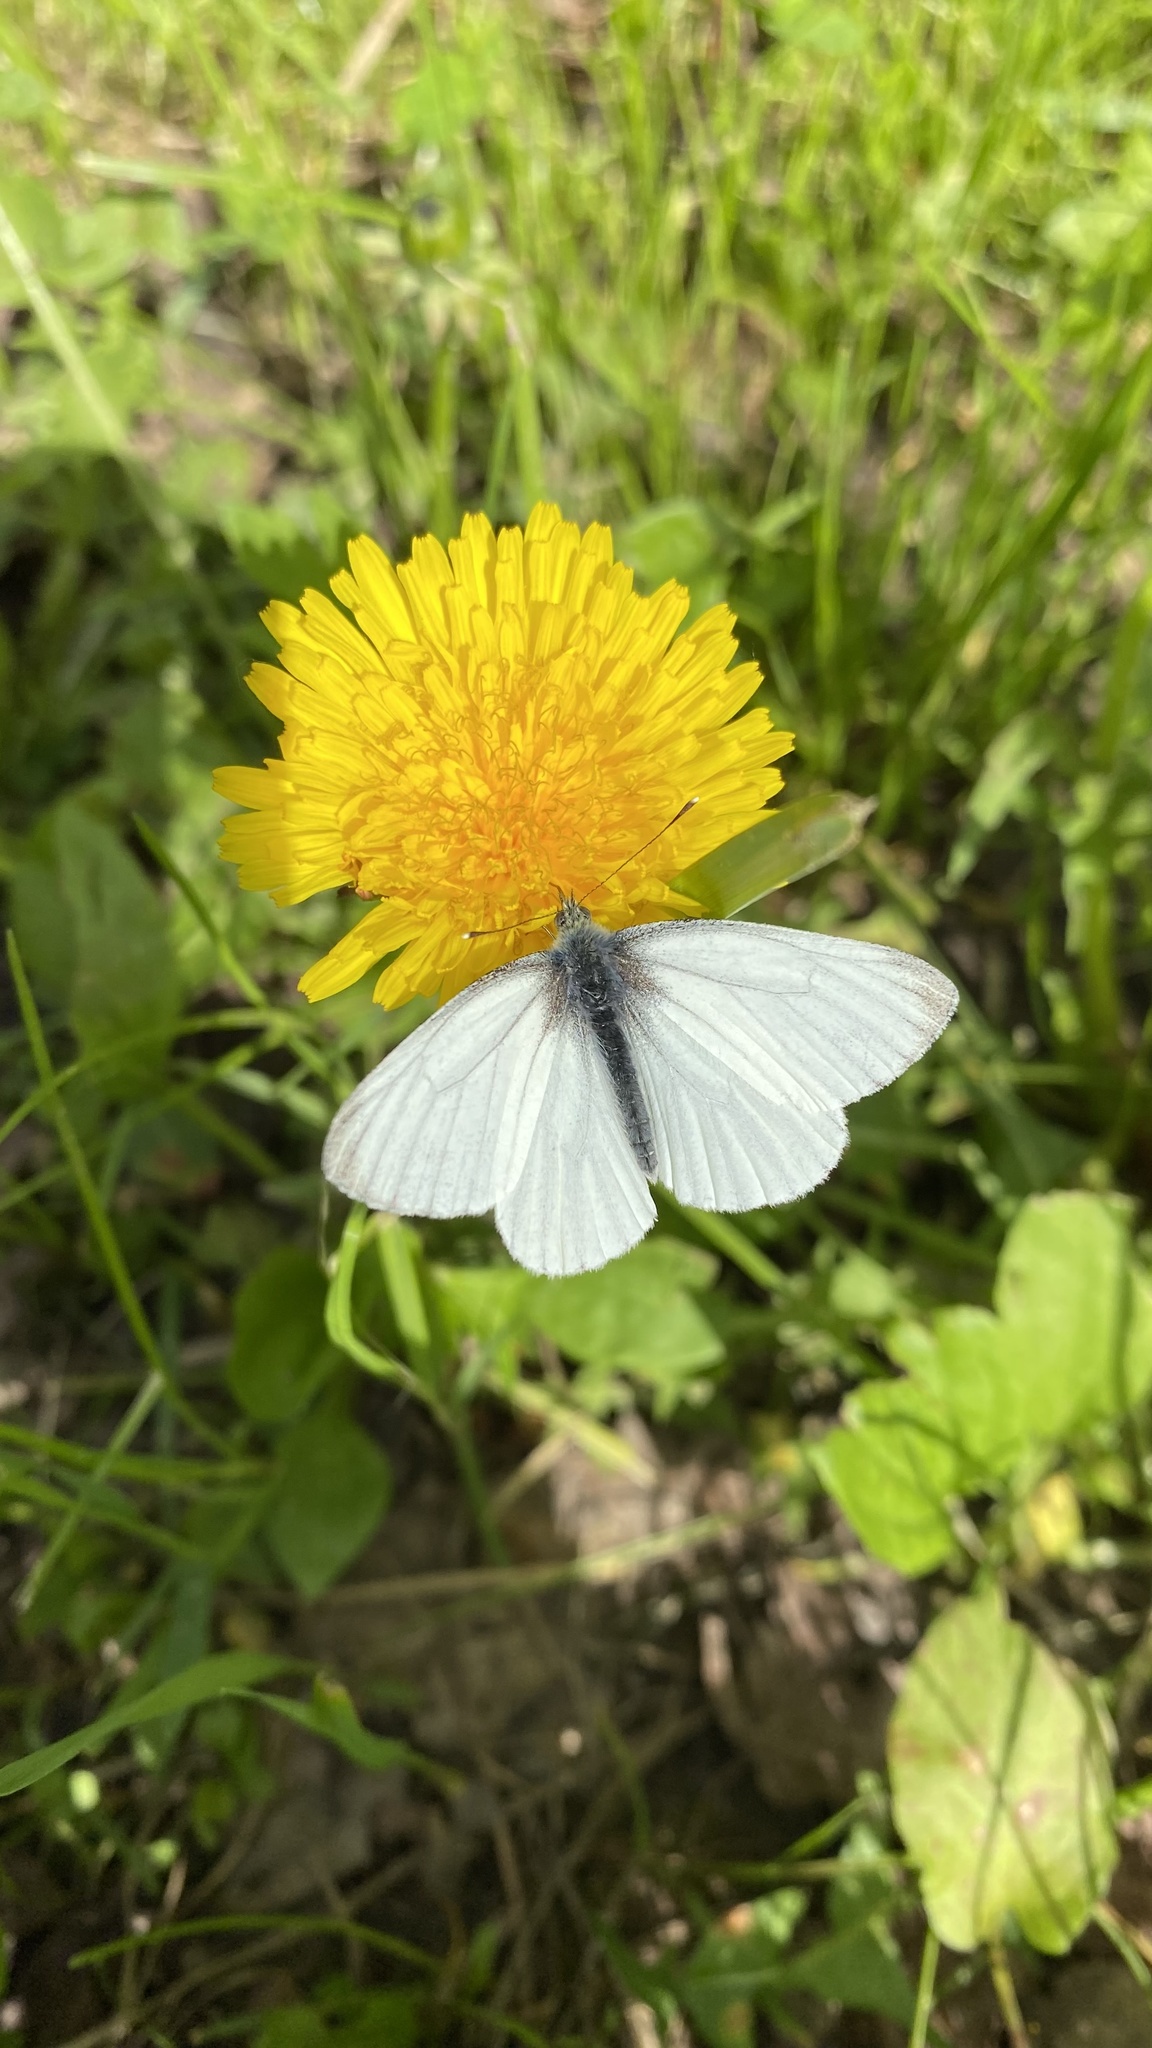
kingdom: Animalia
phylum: Arthropoda
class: Insecta
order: Lepidoptera
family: Pieridae
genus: Pieris
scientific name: Pieris napi
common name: Green-veined white
